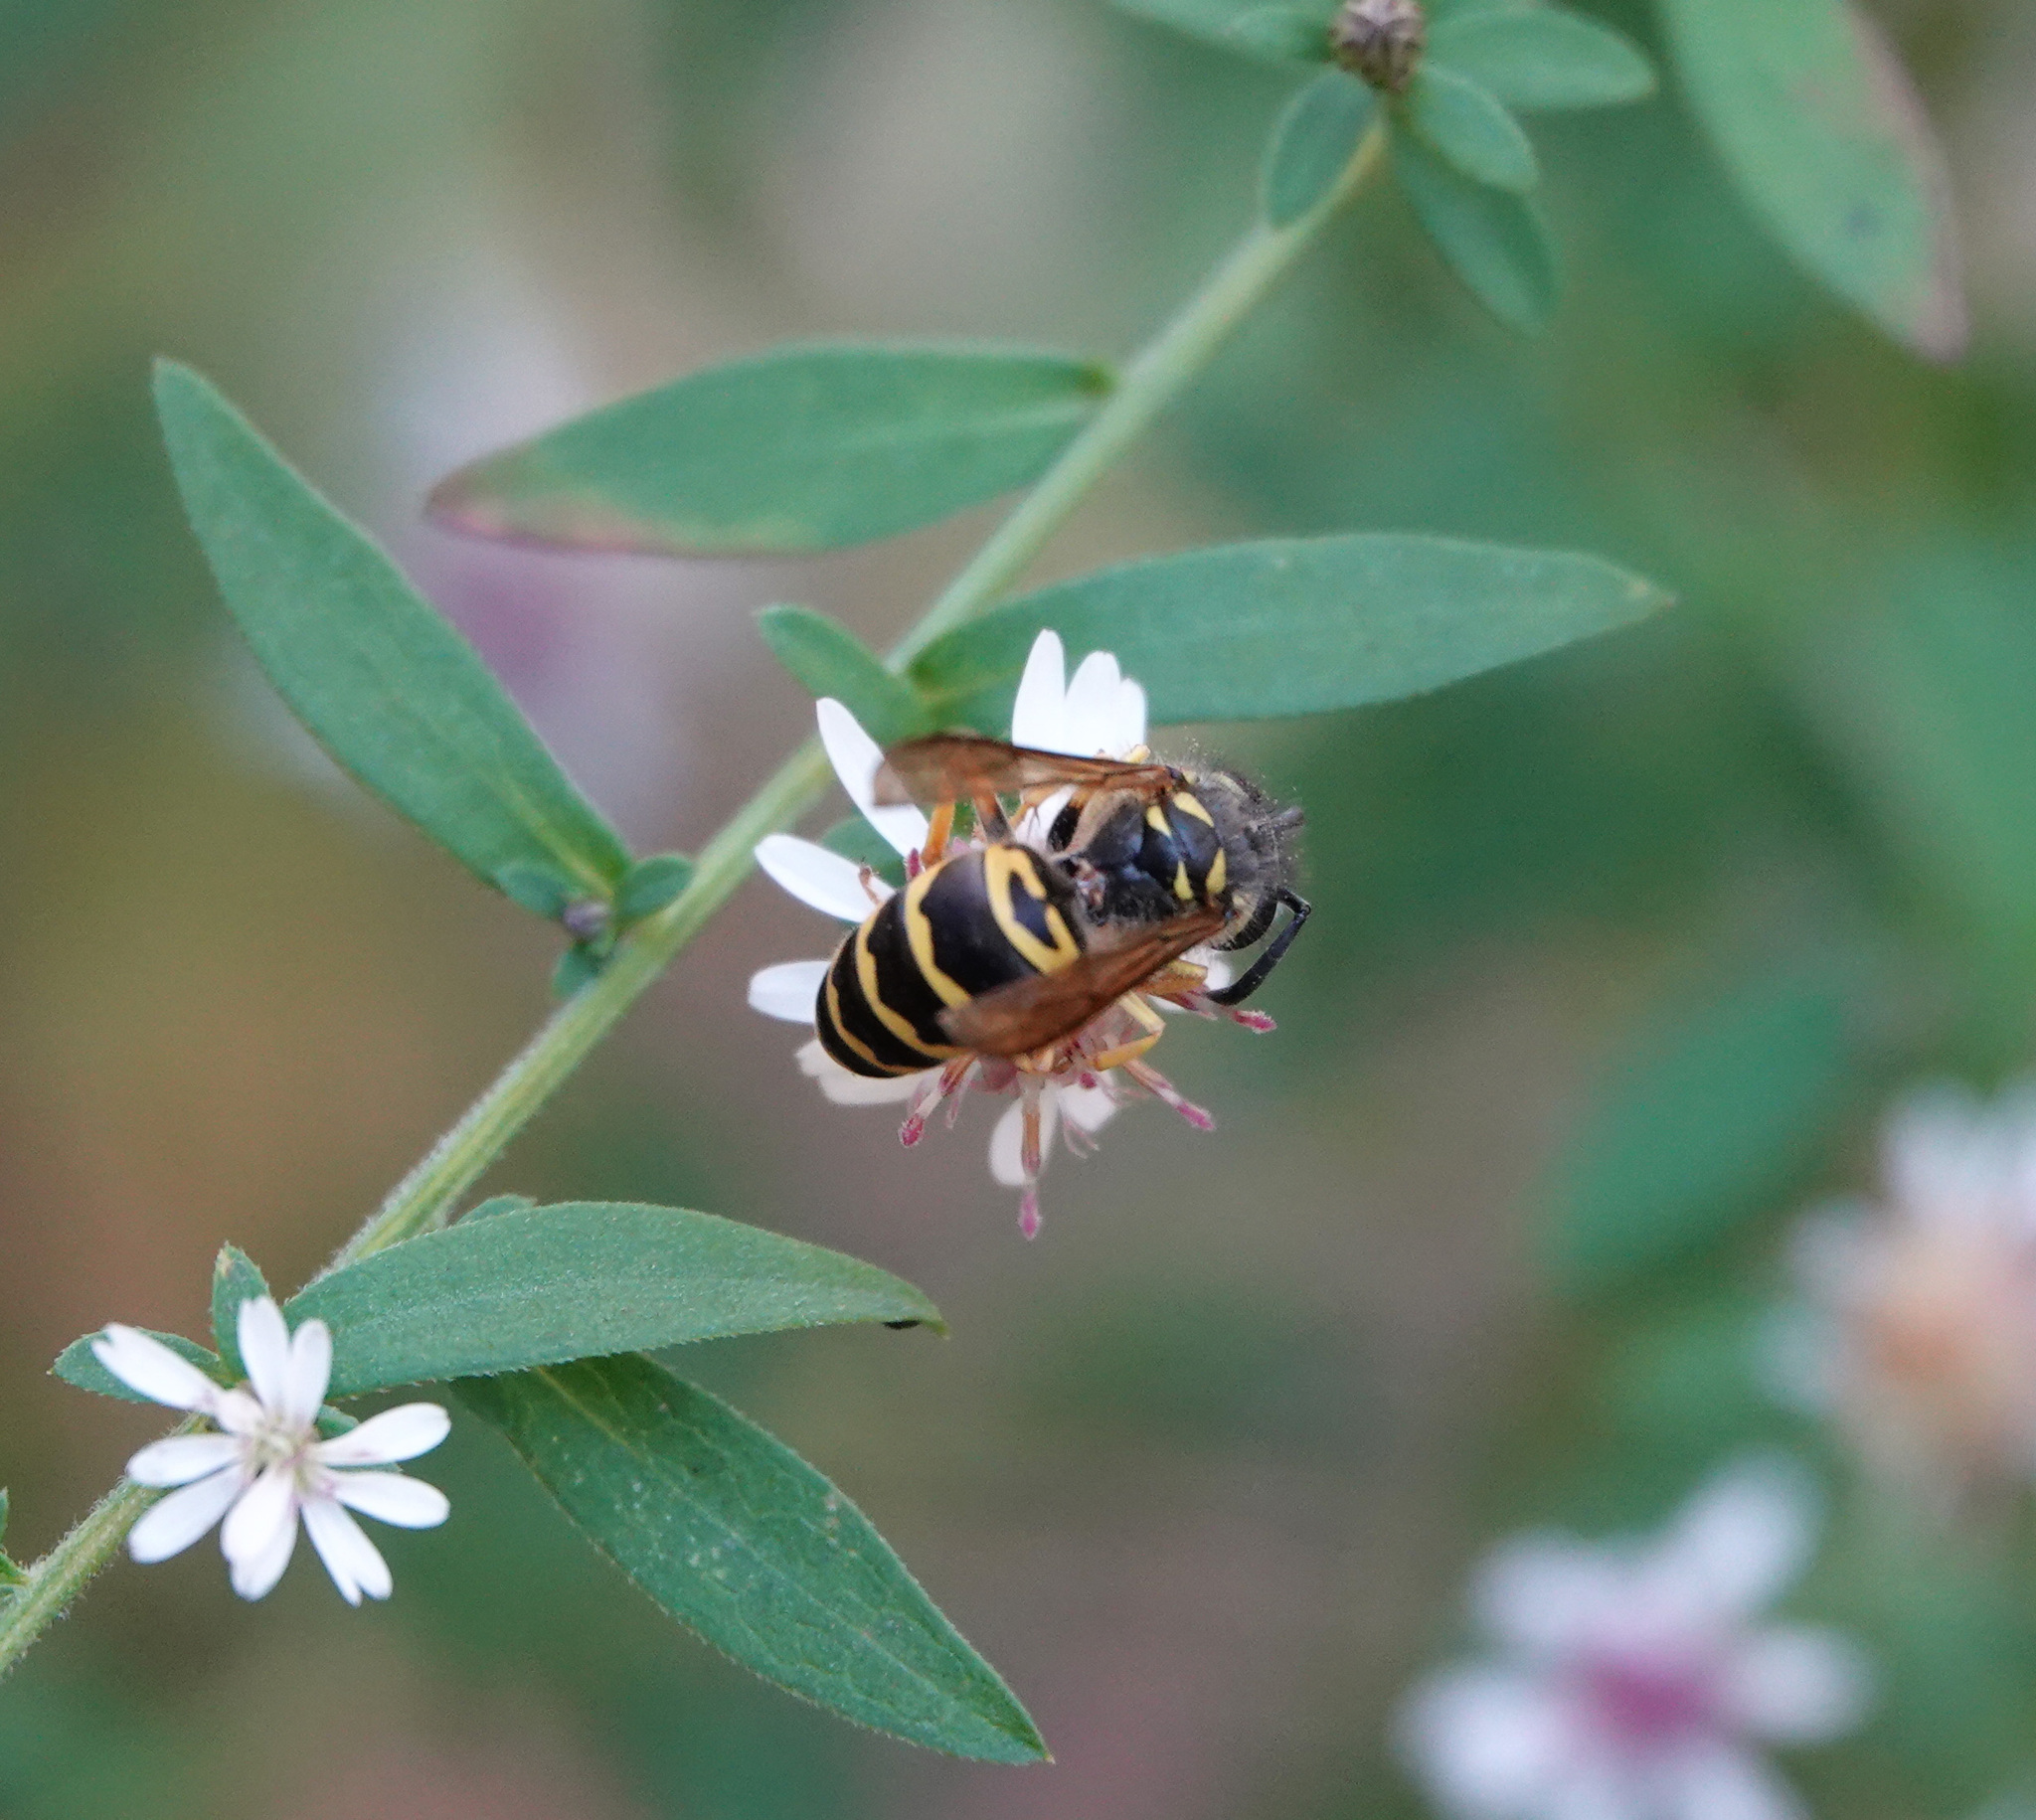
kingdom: Animalia
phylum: Arthropoda
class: Insecta
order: Hymenoptera
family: Vespidae
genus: Vespula
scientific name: Vespula maculifrons
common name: Eastern yellowjacket
